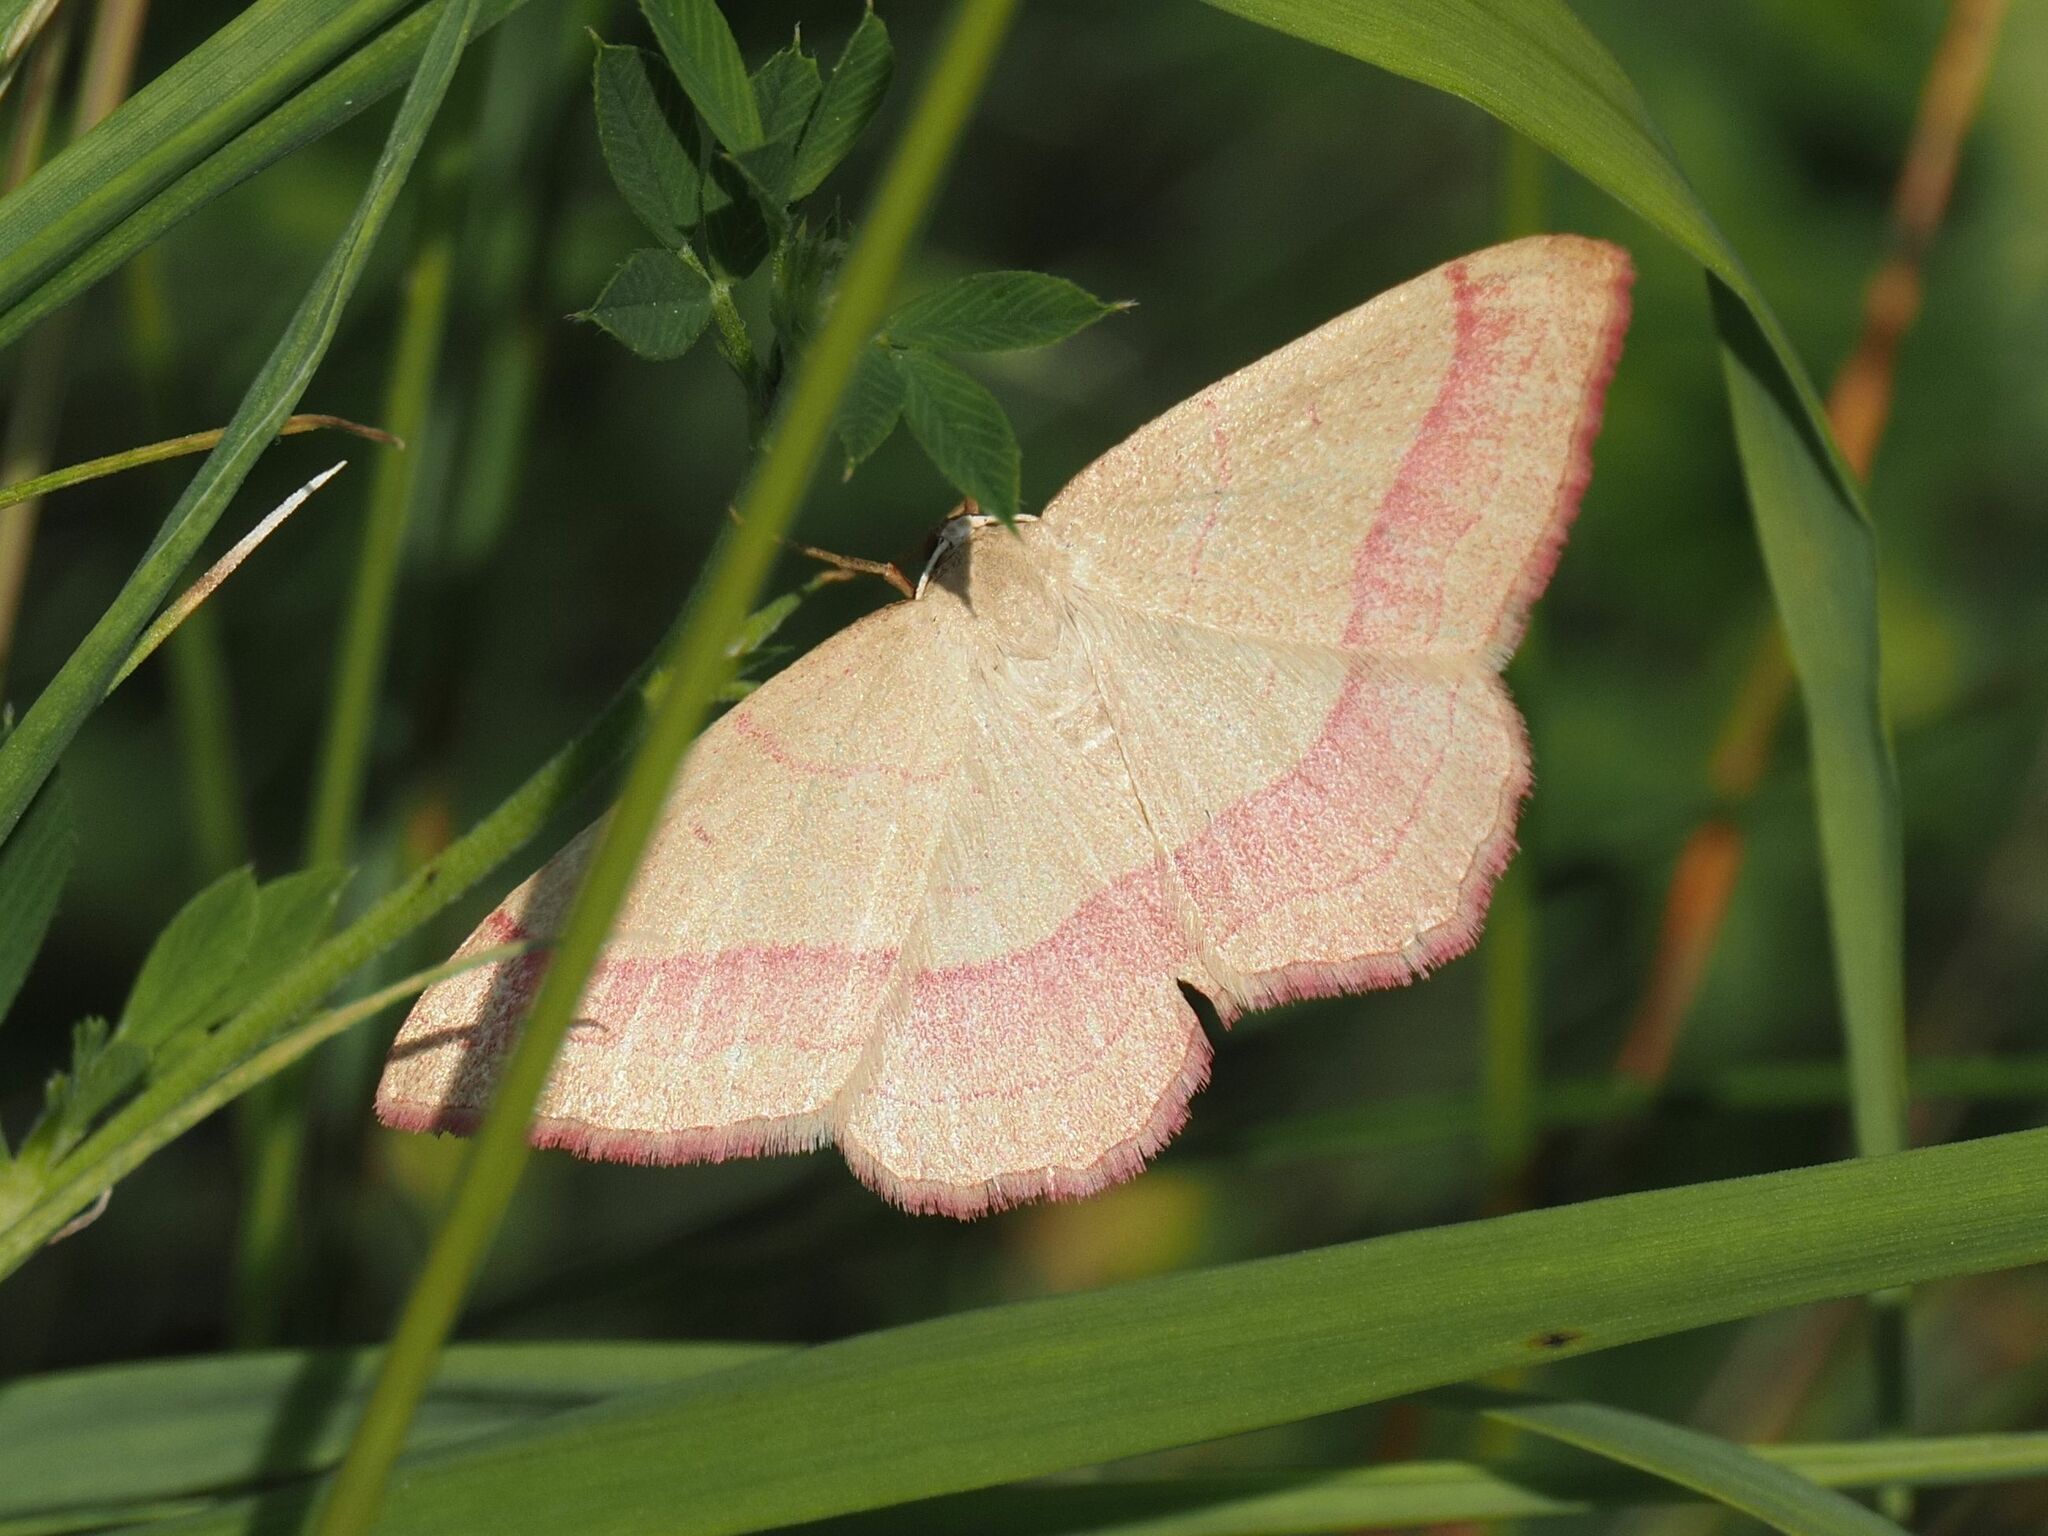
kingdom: Animalia
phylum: Arthropoda
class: Insecta
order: Lepidoptera
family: Geometridae
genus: Rhodostrophia
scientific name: Rhodostrophia vibicaria
